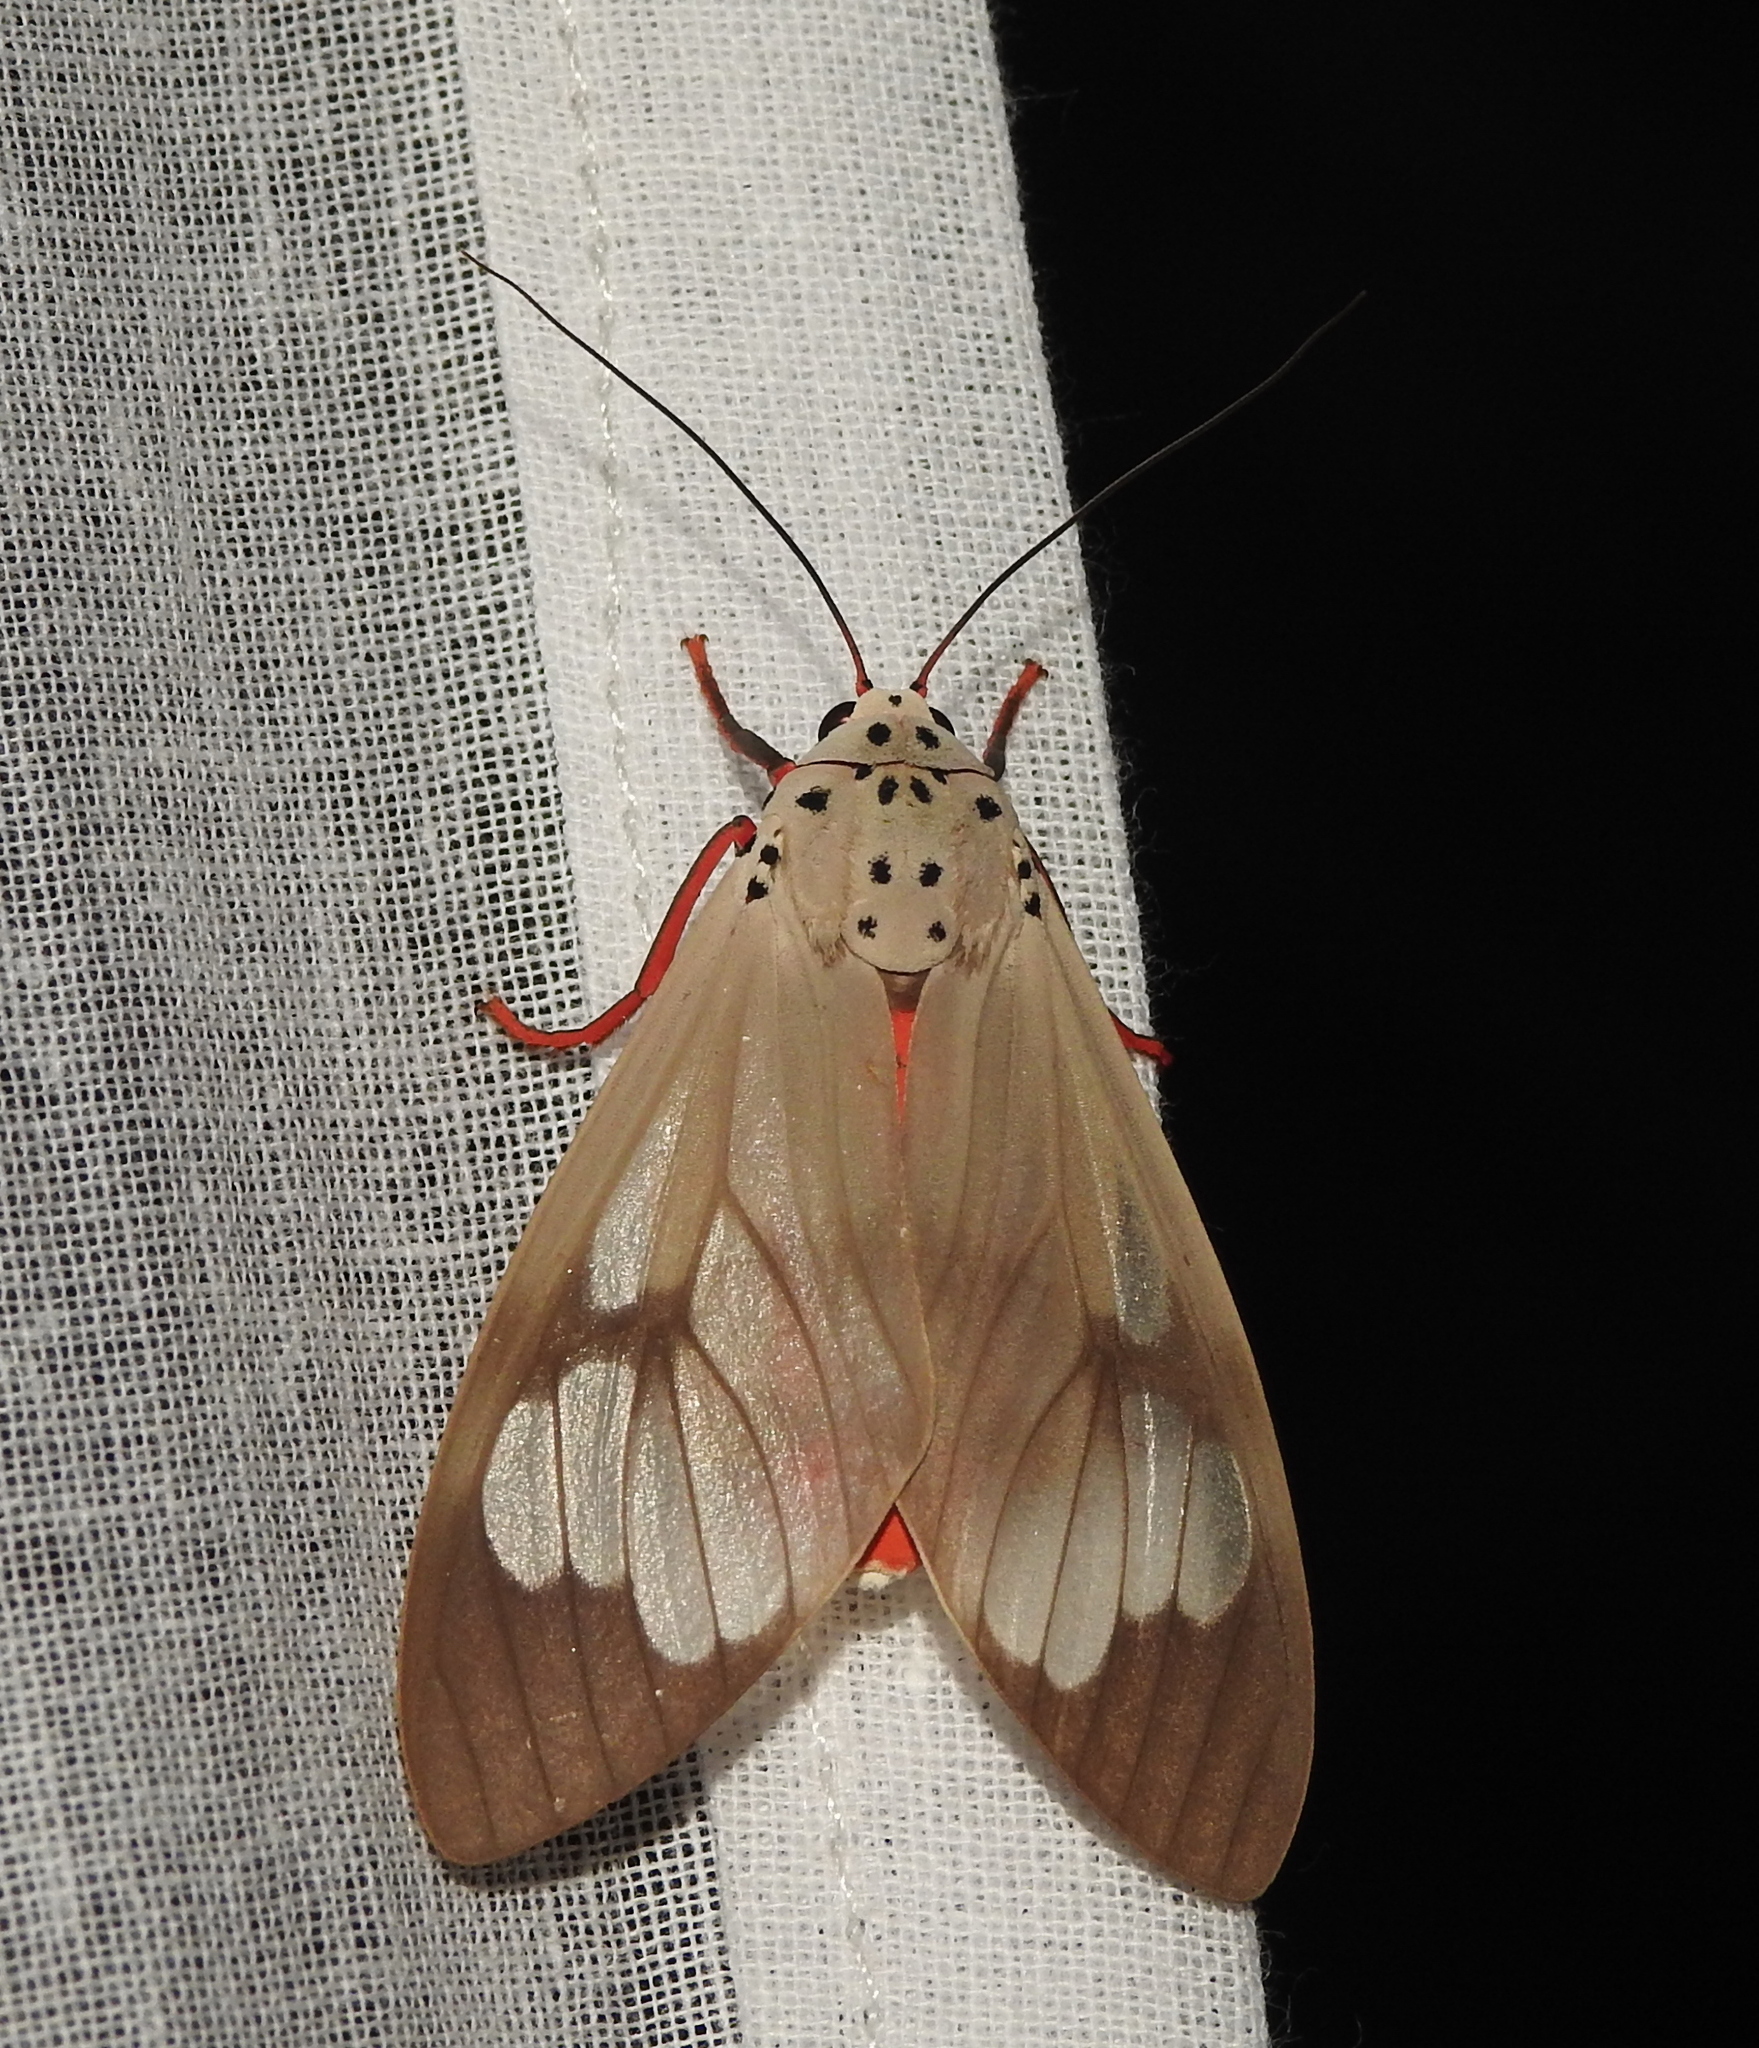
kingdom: Animalia
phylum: Arthropoda
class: Insecta
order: Lepidoptera
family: Erebidae
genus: Amerila
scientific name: Amerila astreus
